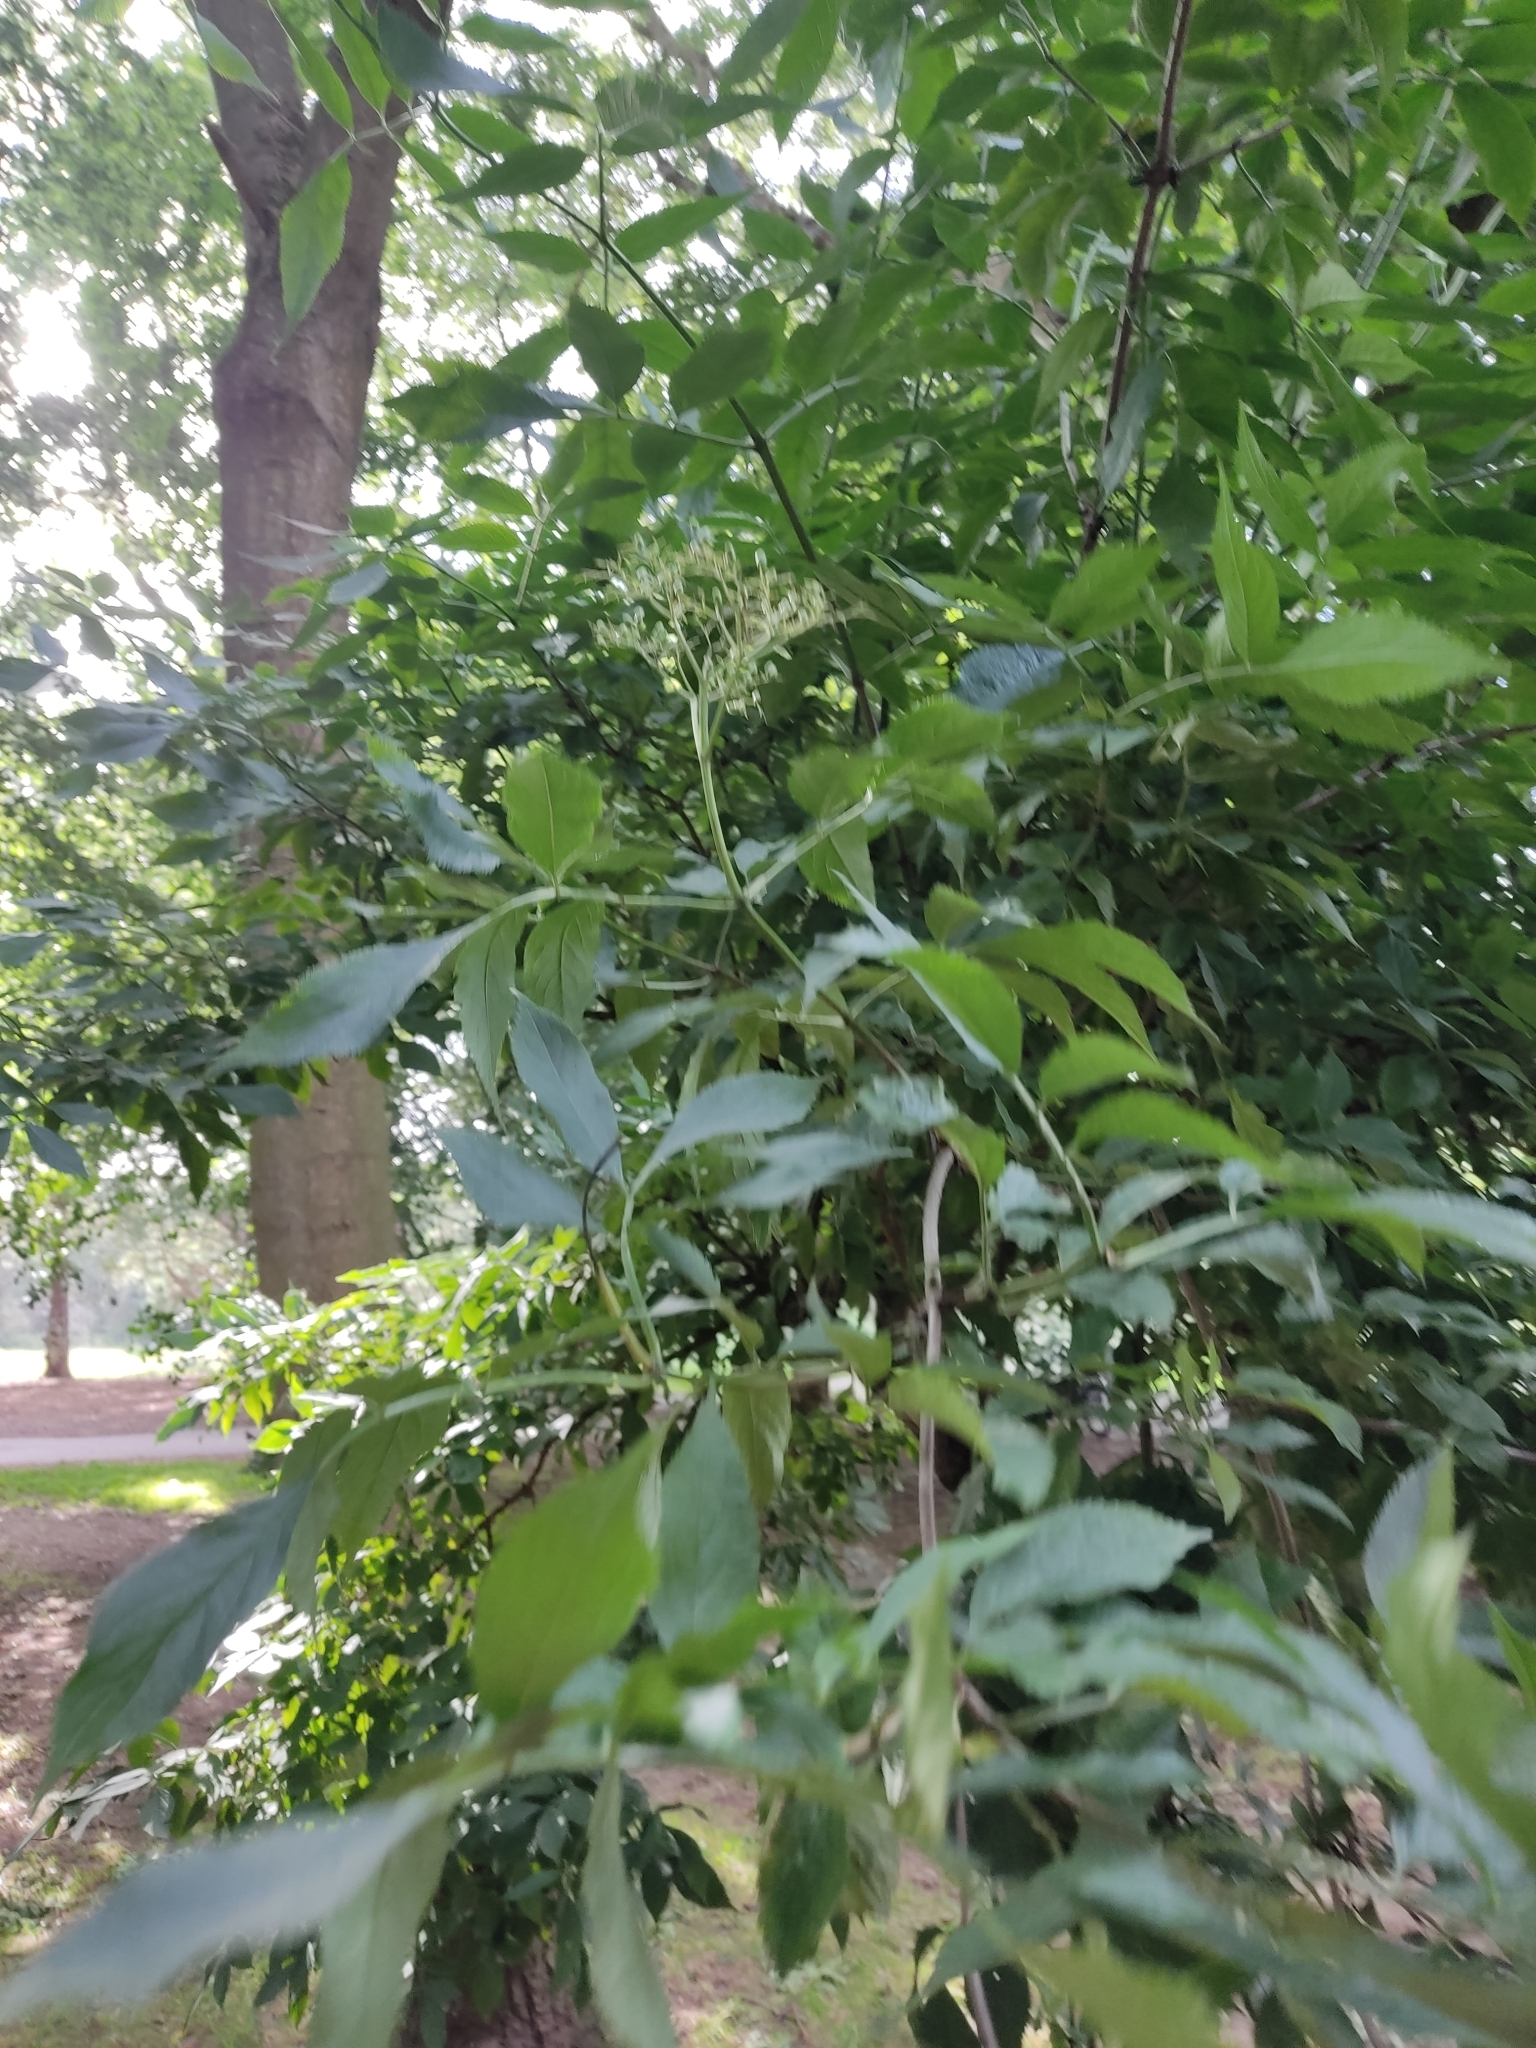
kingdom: Plantae
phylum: Tracheophyta
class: Magnoliopsida
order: Dipsacales
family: Viburnaceae
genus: Sambucus
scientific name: Sambucus nigra
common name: Elder
